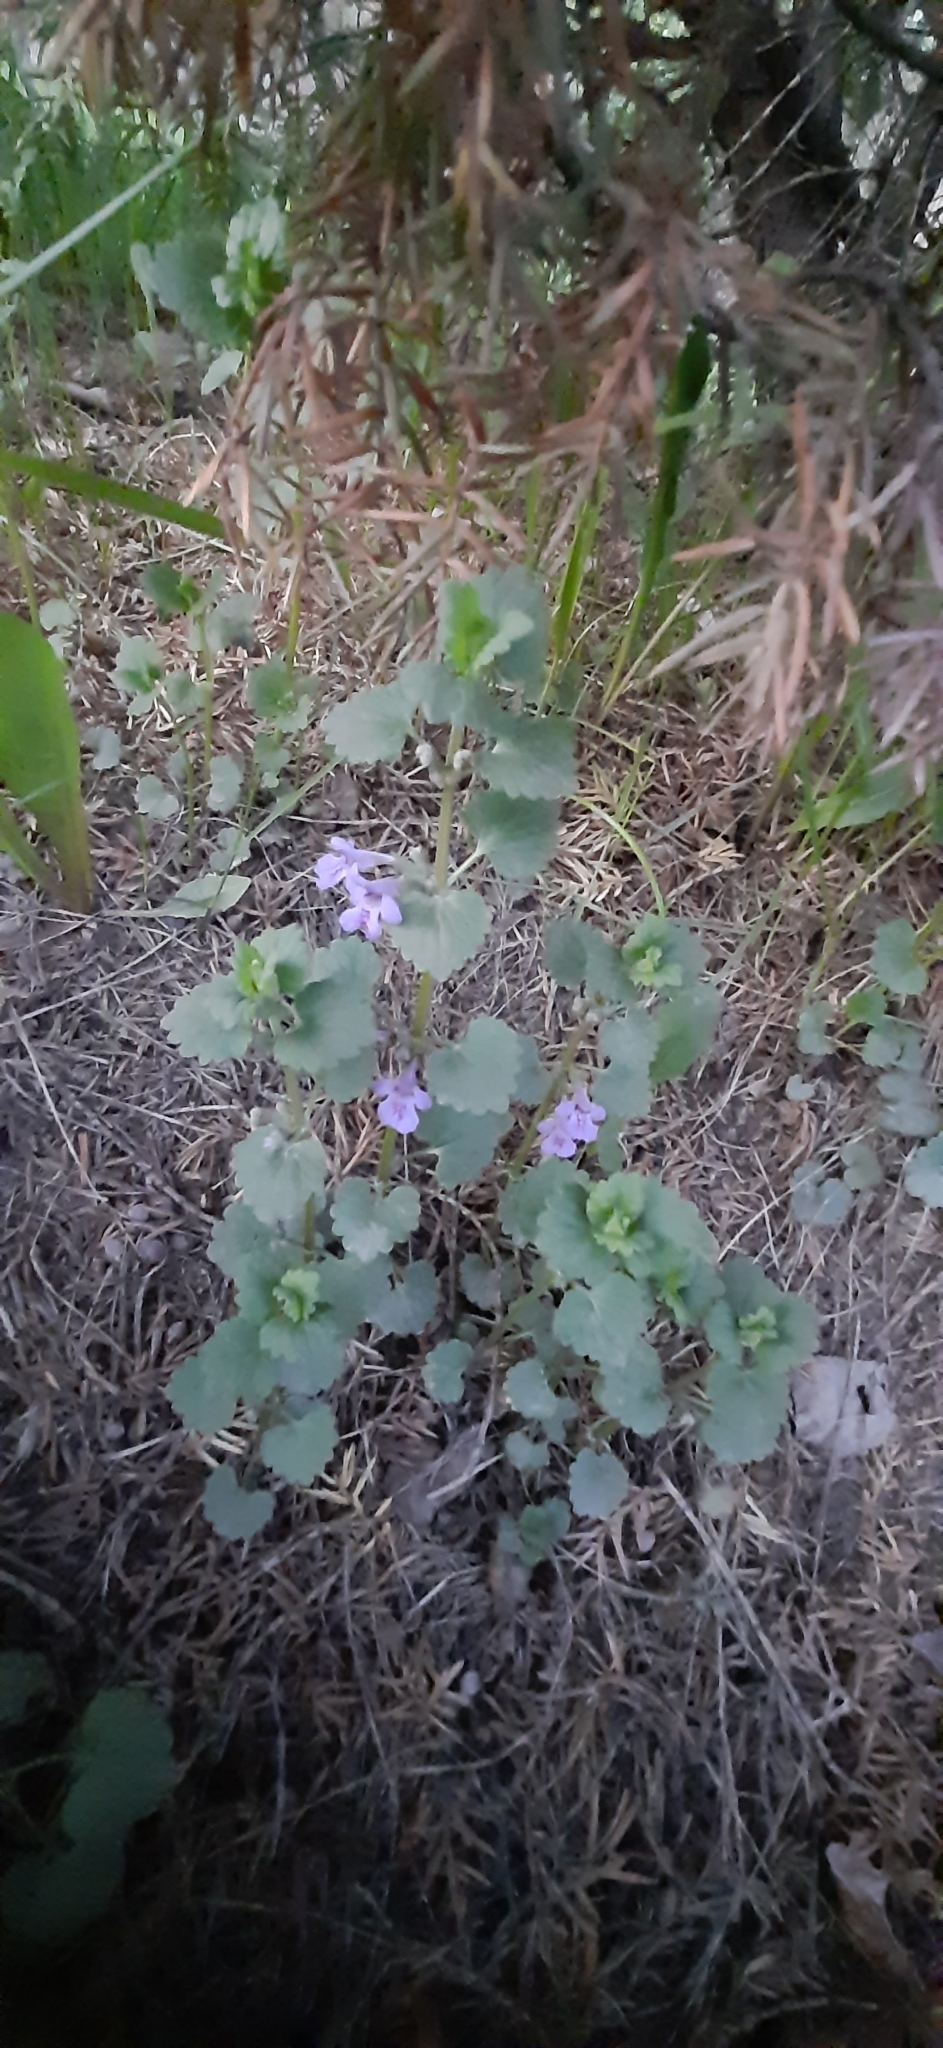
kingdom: Plantae
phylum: Tracheophyta
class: Magnoliopsida
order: Lamiales
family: Lamiaceae
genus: Glechoma
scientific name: Glechoma hederacea
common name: Ground ivy
